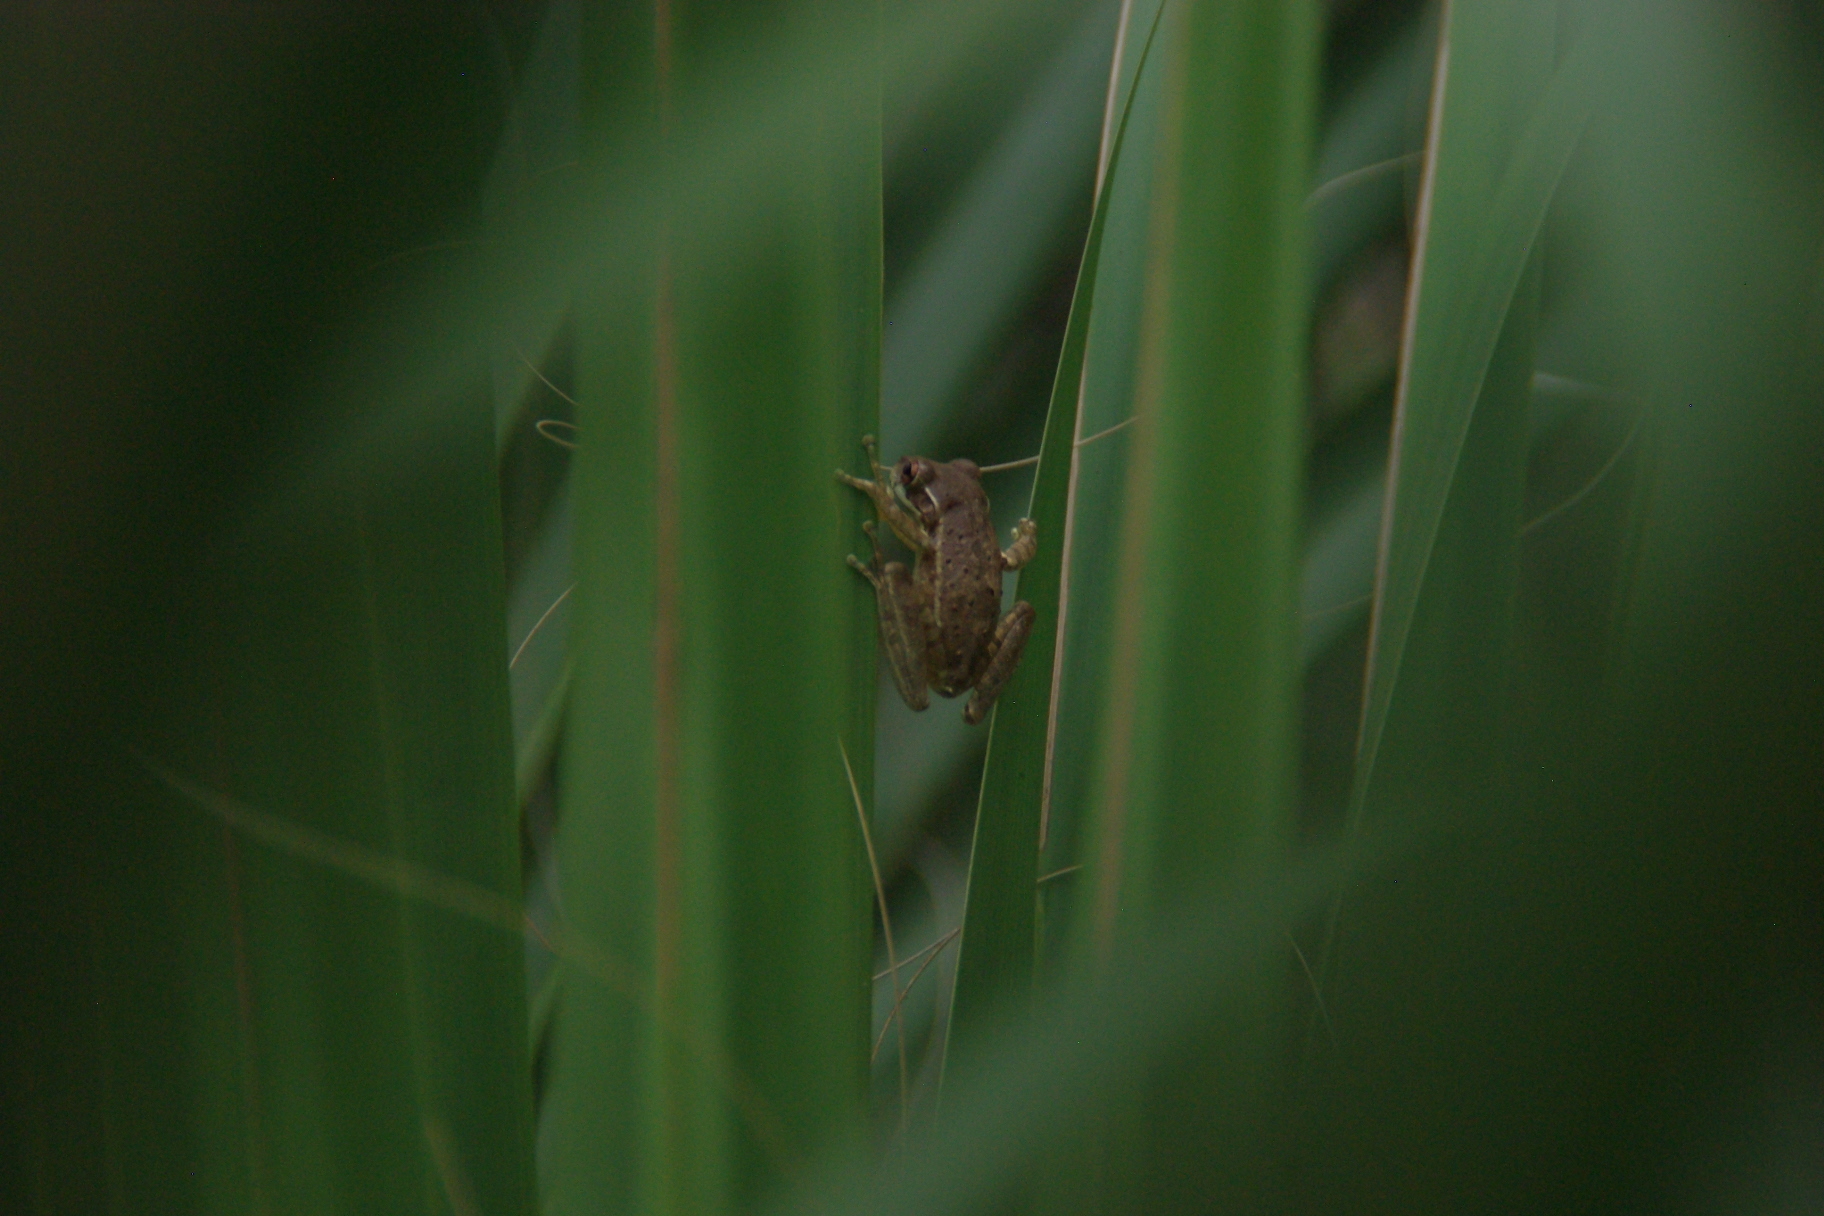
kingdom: Animalia
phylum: Chordata
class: Amphibia
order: Anura
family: Hylidae
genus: Osteopilus
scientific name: Osteopilus septentrionalis
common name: Cuban treefrog
